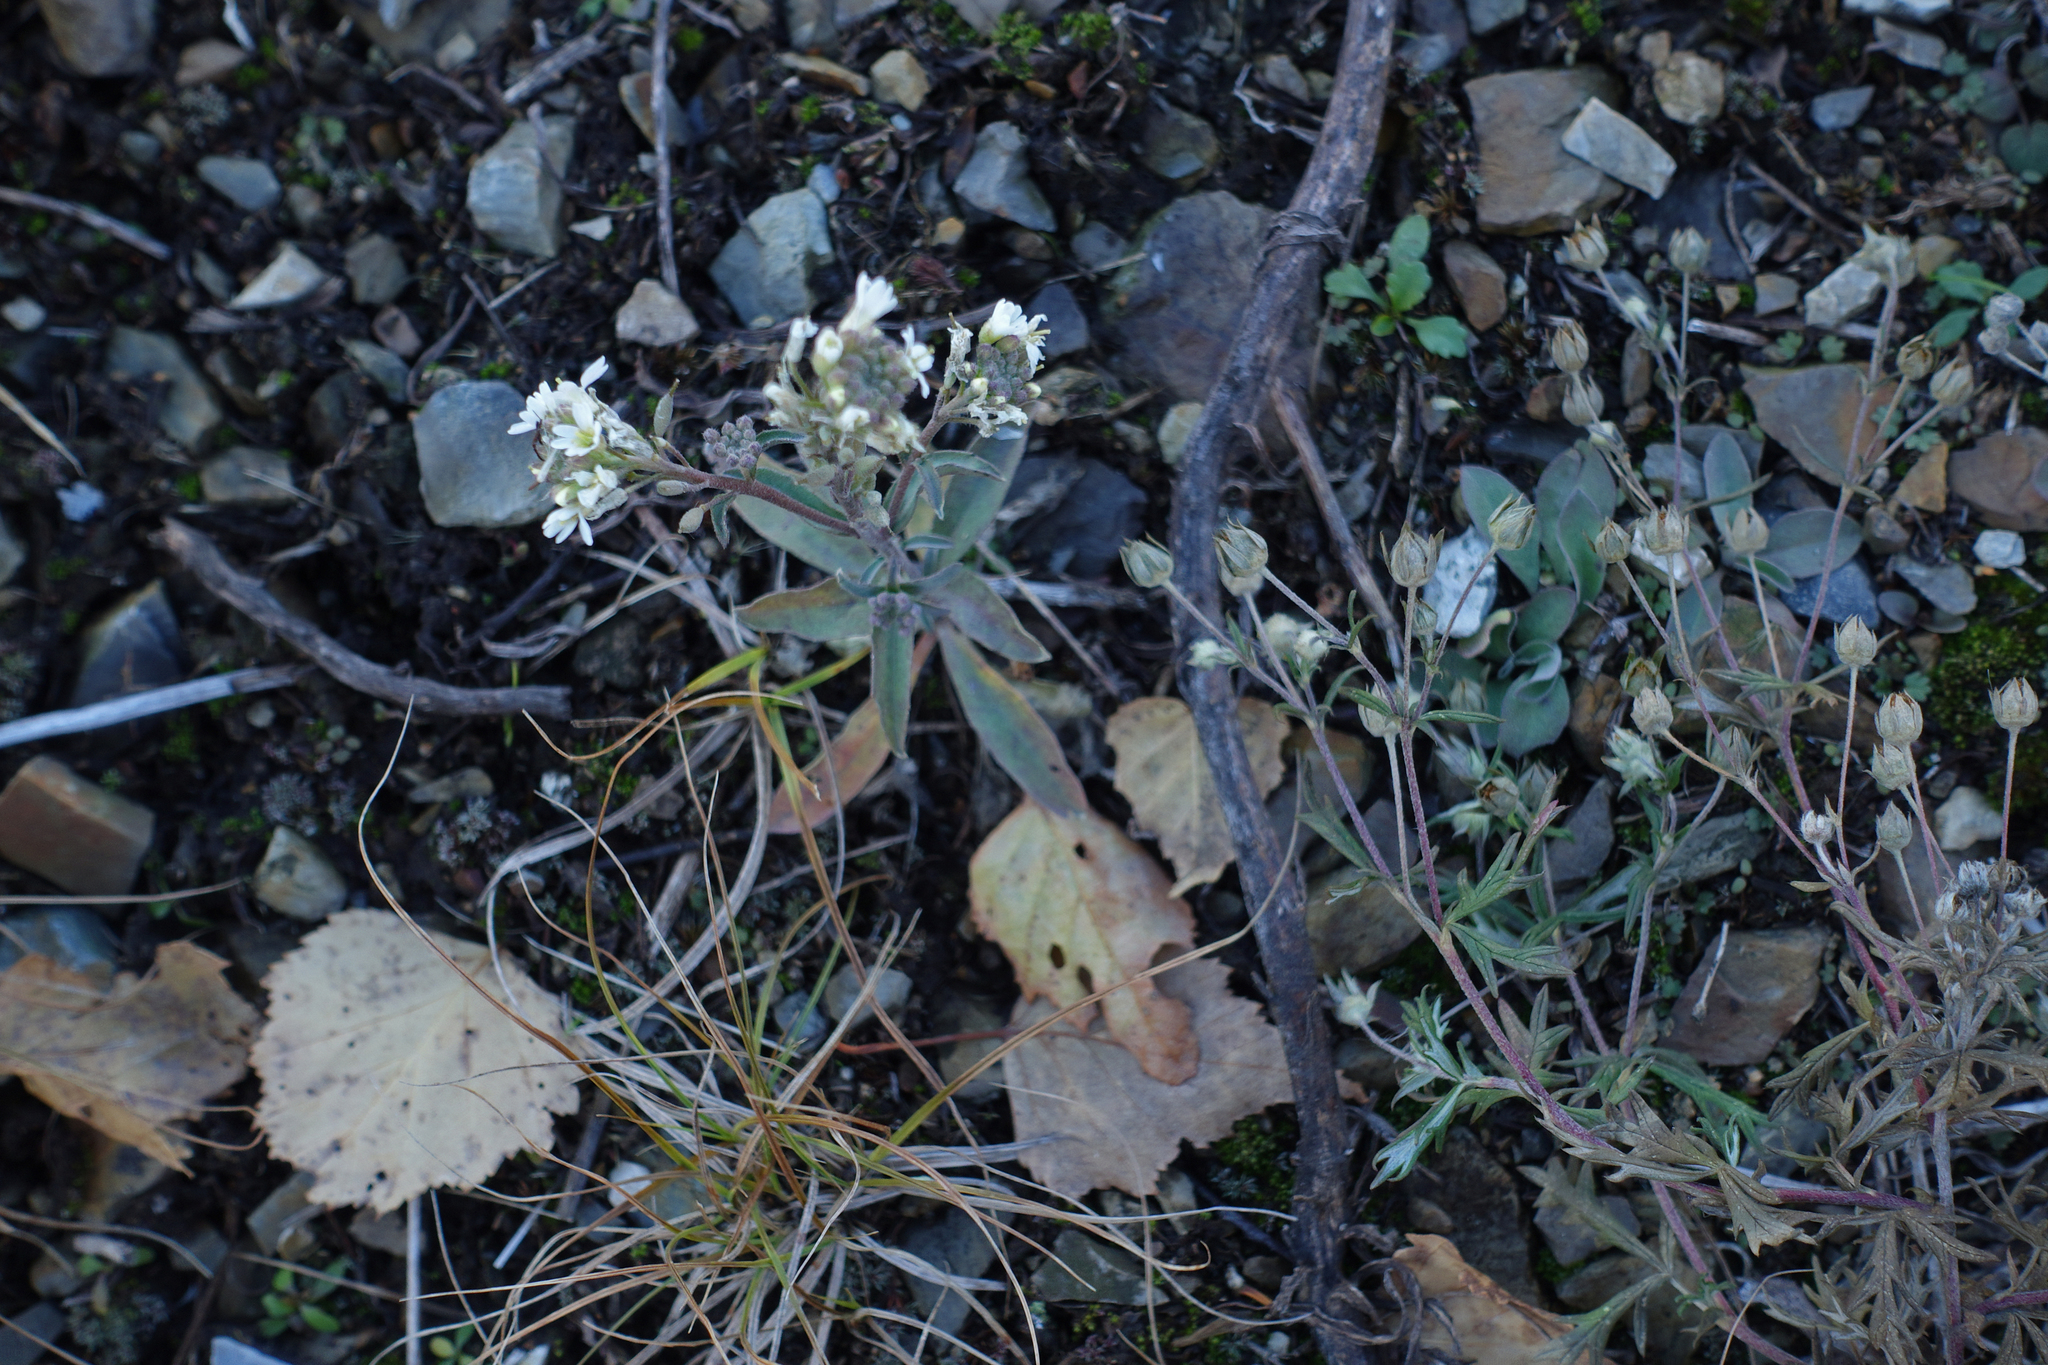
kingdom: Plantae
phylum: Tracheophyta
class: Magnoliopsida
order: Brassicales
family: Brassicaceae
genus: Berteroa
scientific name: Berteroa incana
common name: Hoary alison
